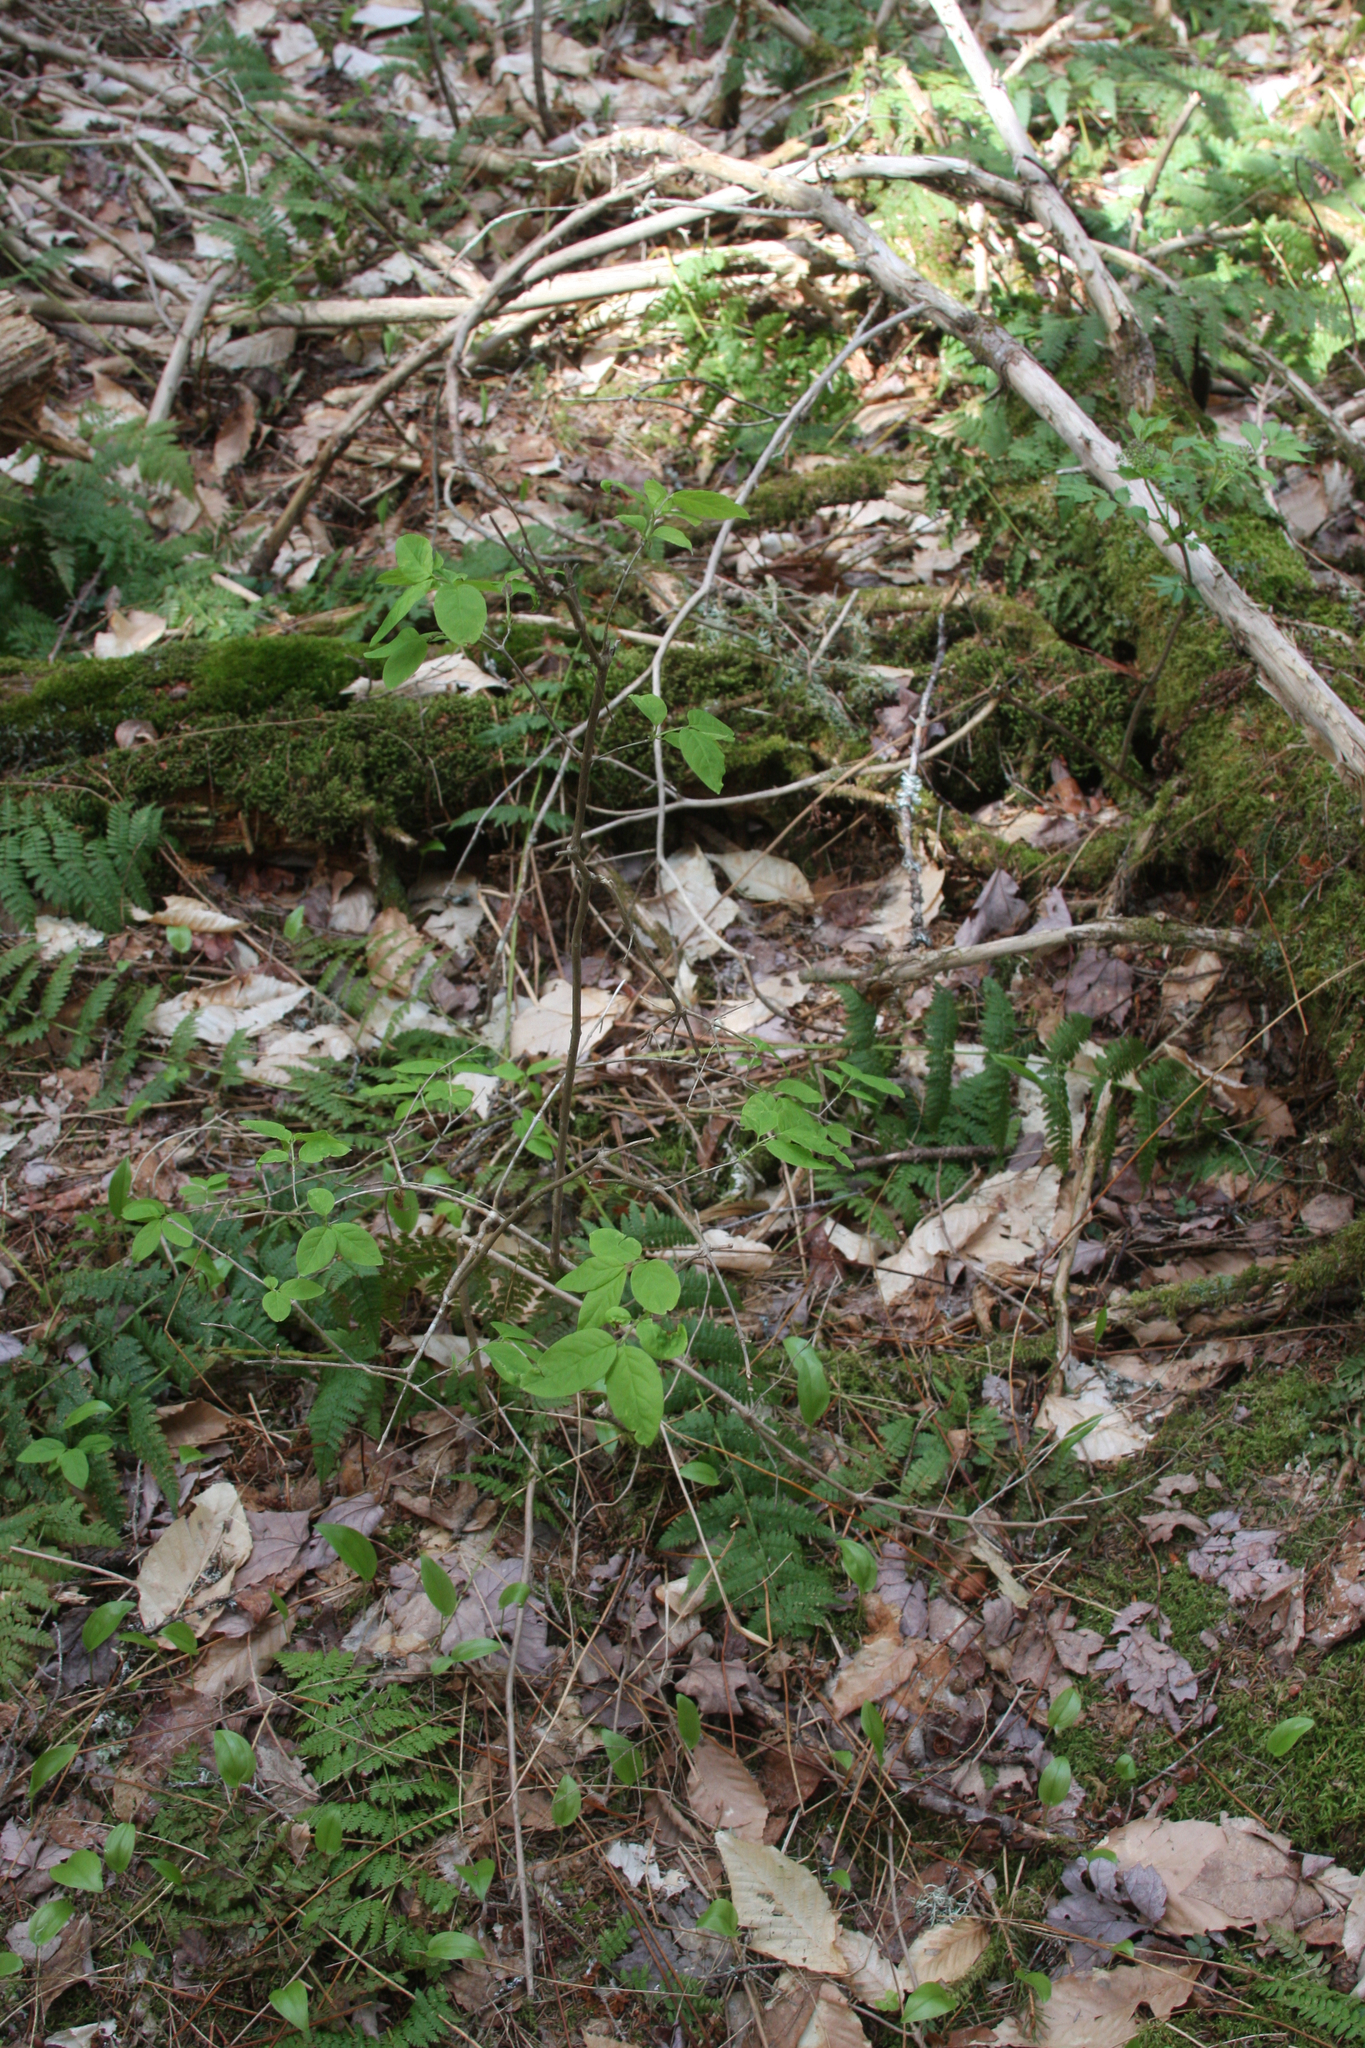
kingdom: Plantae
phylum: Tracheophyta
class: Magnoliopsida
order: Dipsacales
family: Caprifoliaceae
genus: Lonicera
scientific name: Lonicera canadensis
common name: American fly-honeysuckle
